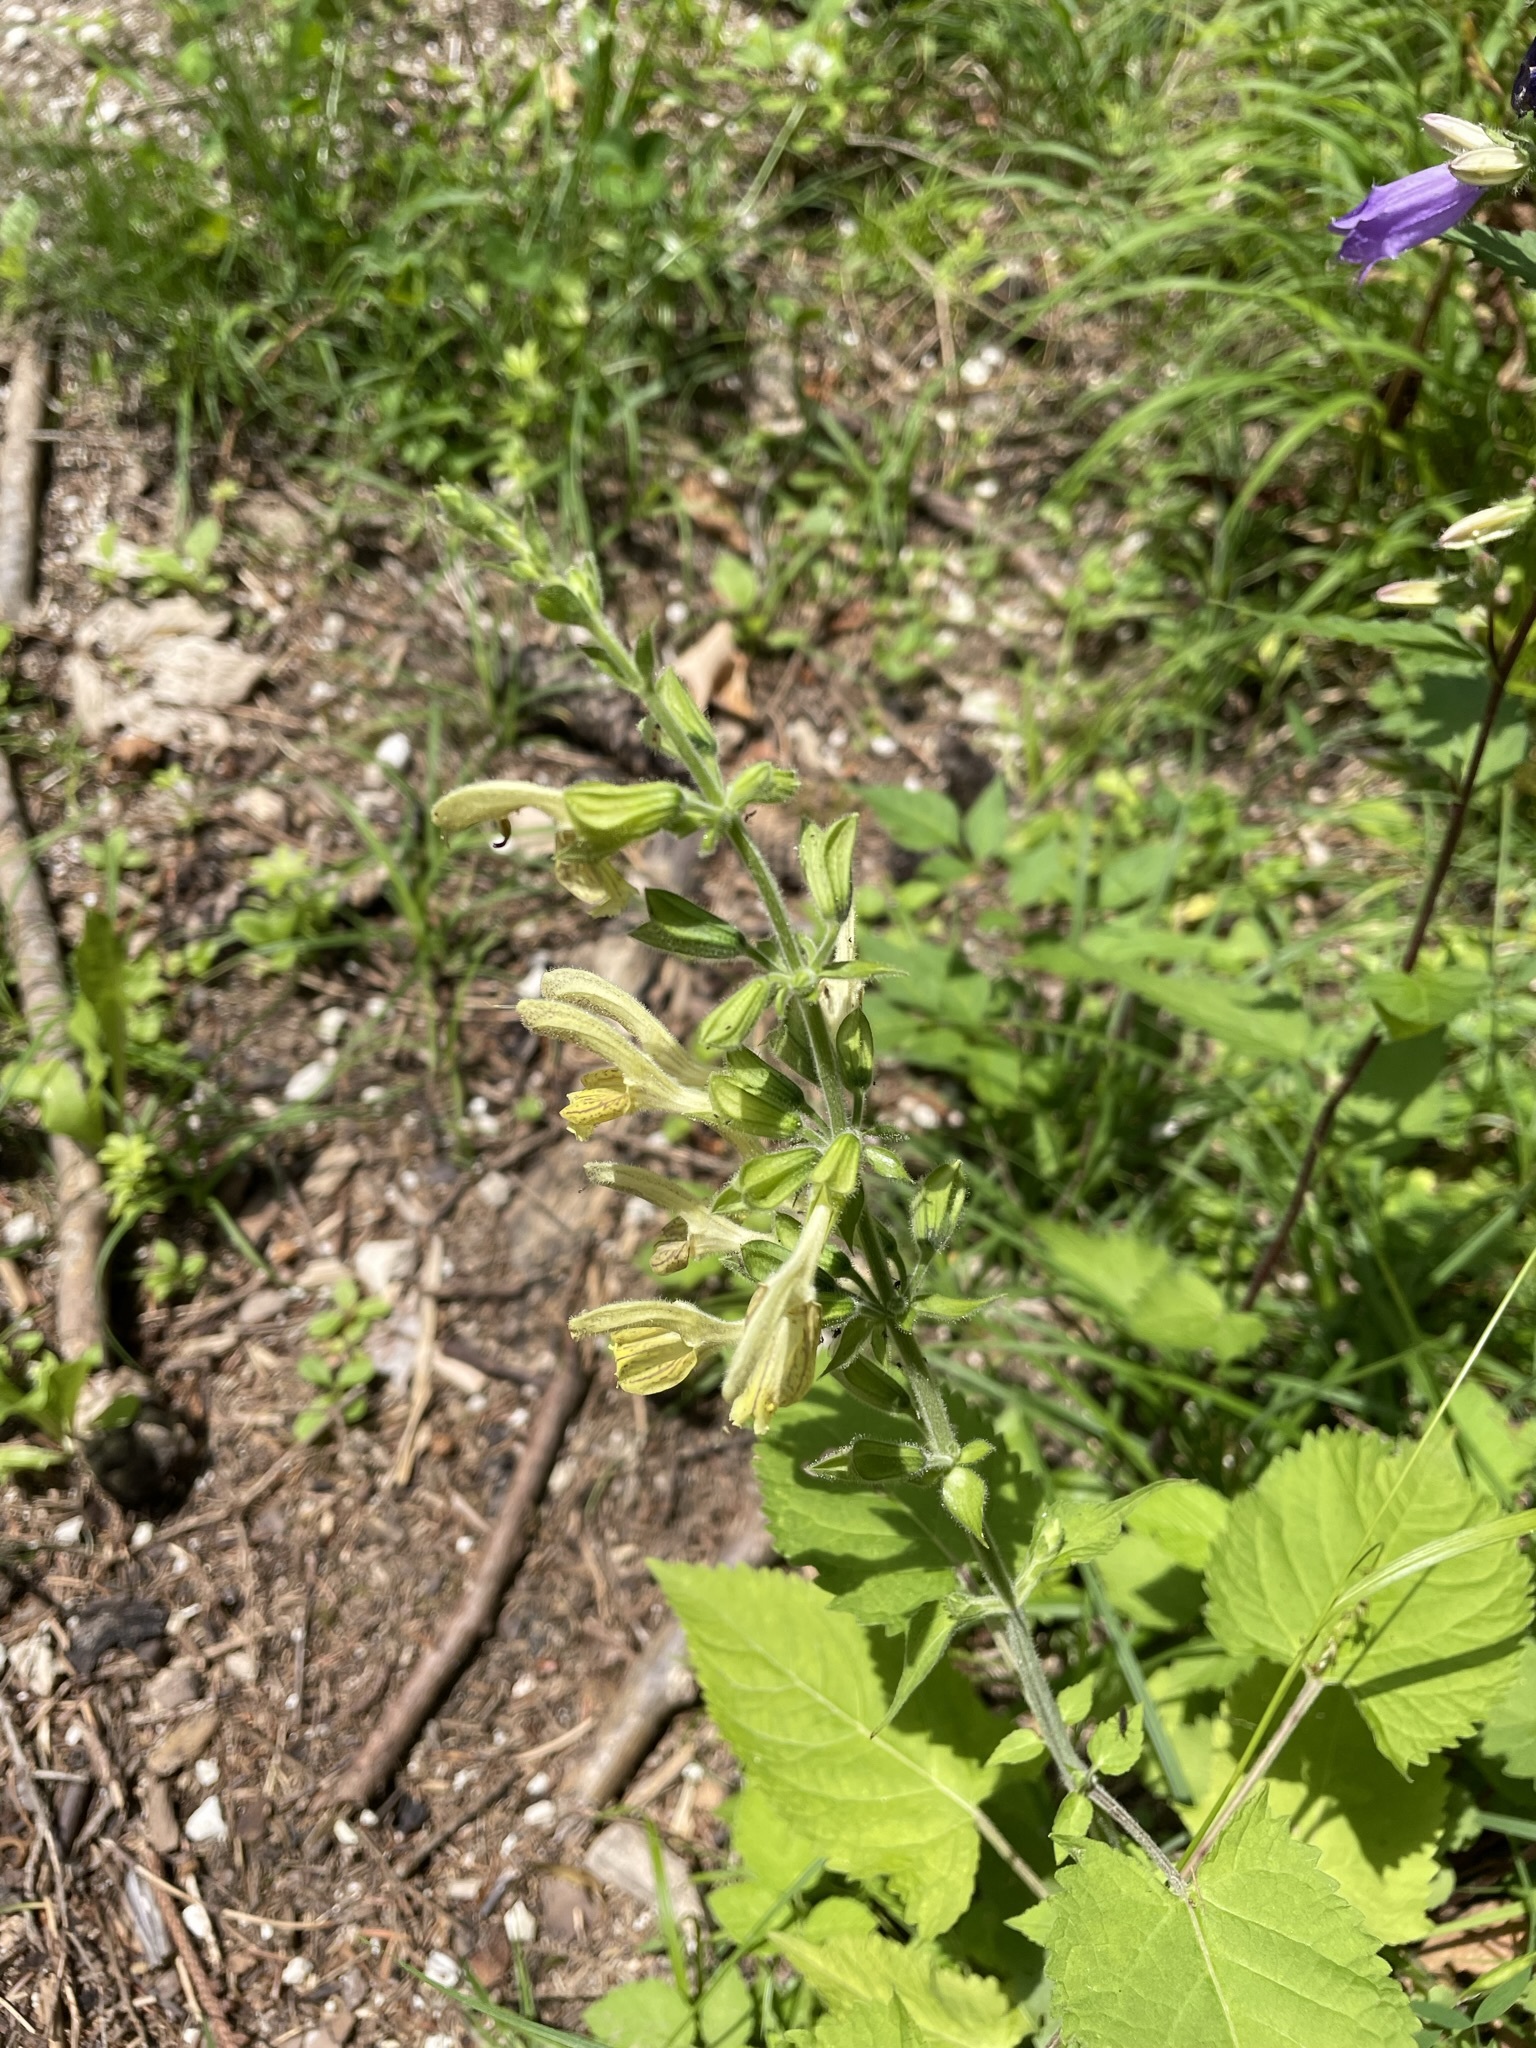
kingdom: Plantae
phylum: Tracheophyta
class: Magnoliopsida
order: Lamiales
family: Lamiaceae
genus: Salvia
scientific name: Salvia glutinosa
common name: Sticky clary
